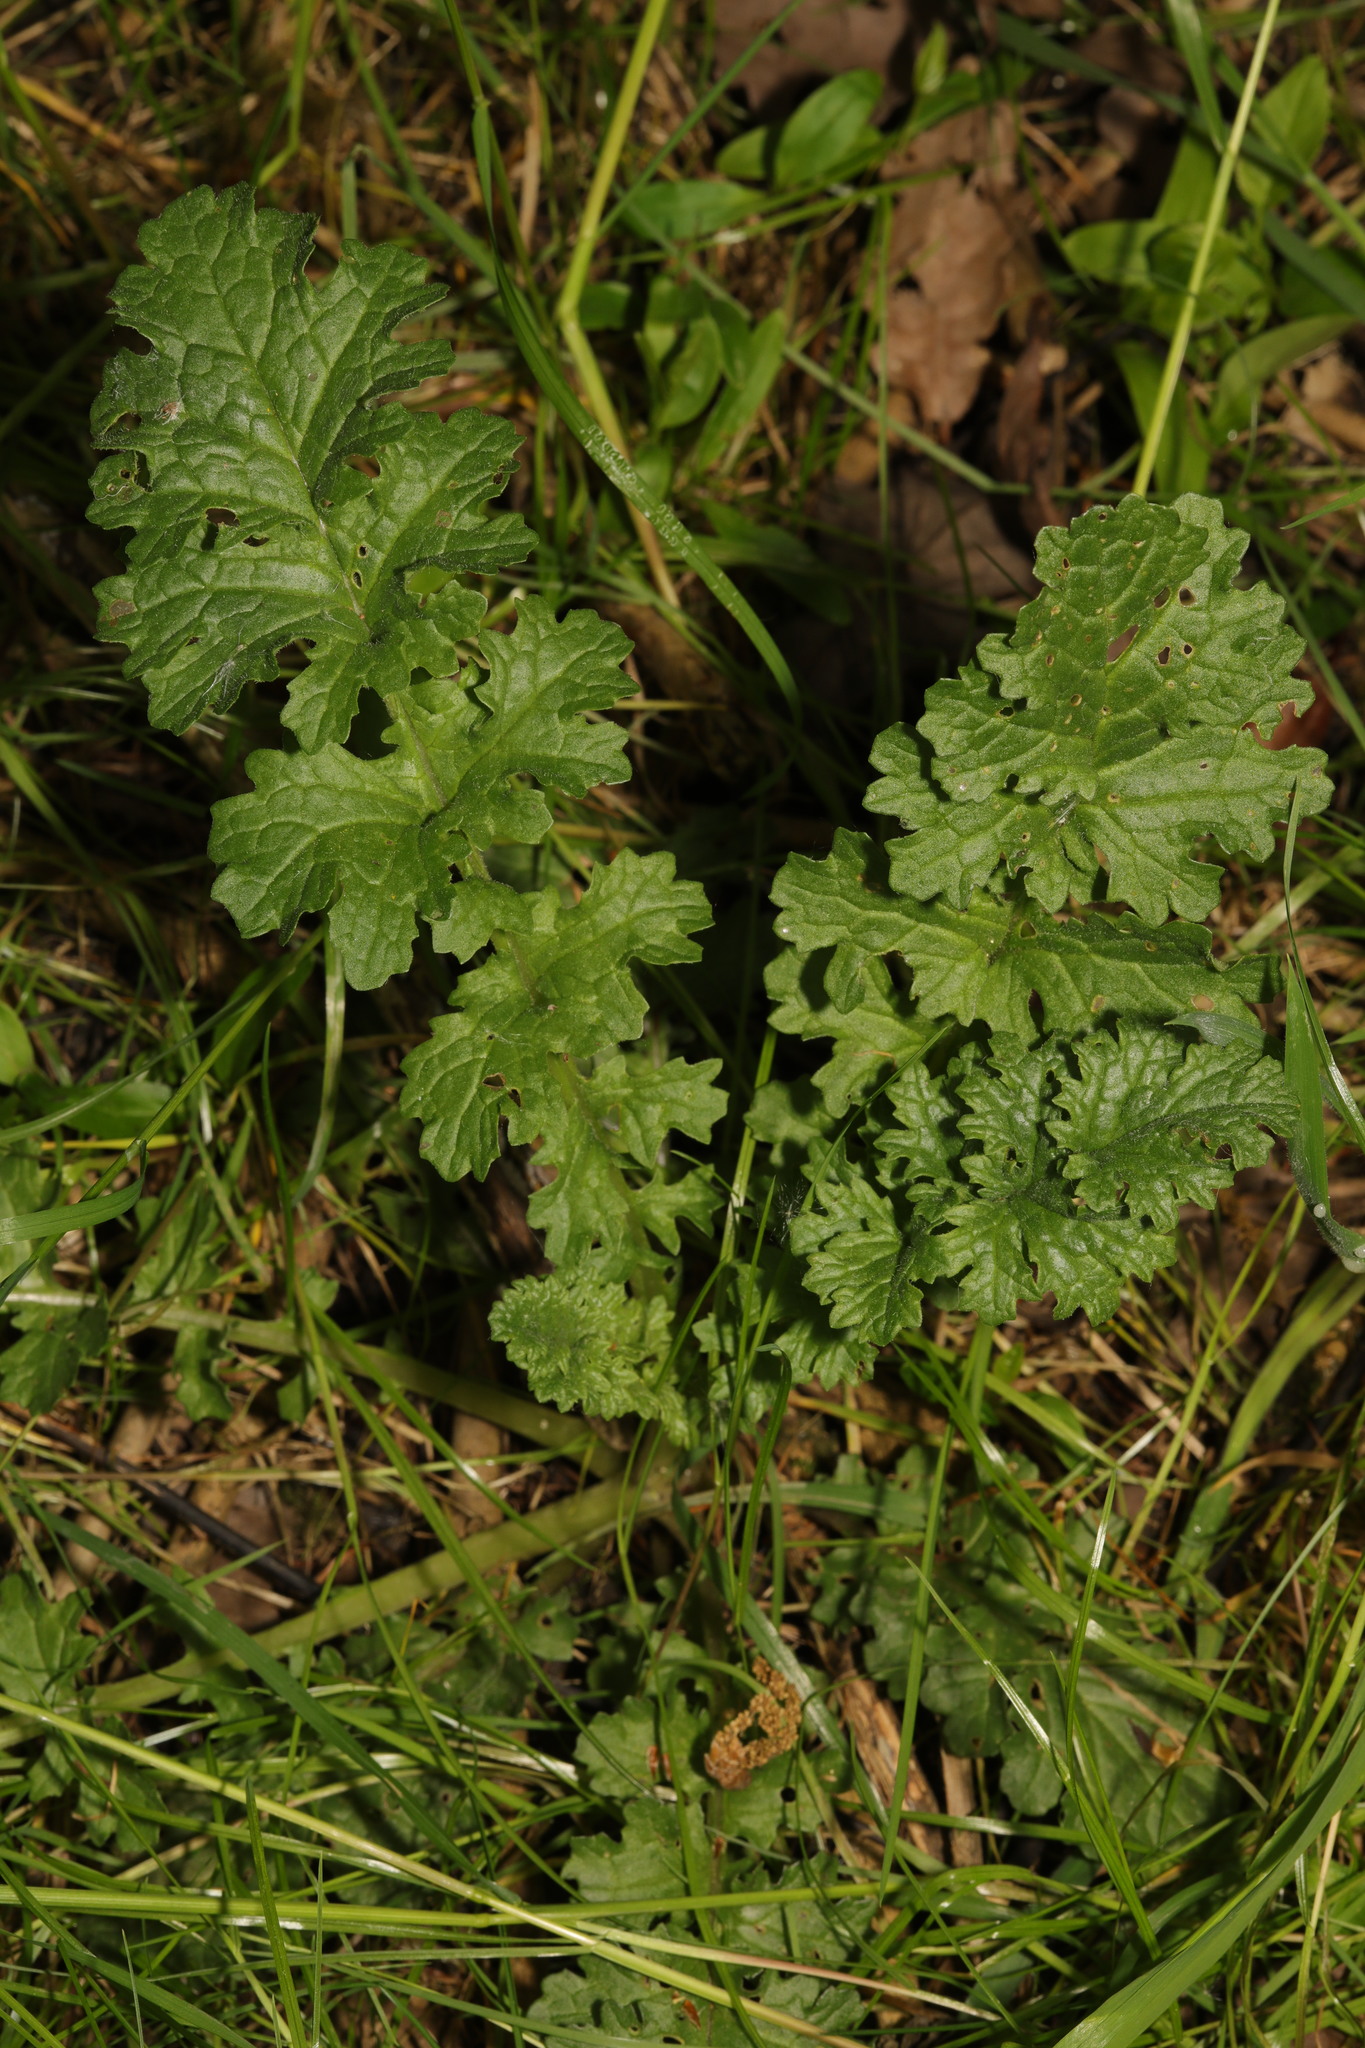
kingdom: Plantae
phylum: Tracheophyta
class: Magnoliopsida
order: Asterales
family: Asteraceae
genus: Jacobaea
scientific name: Jacobaea vulgaris
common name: Stinking willie
